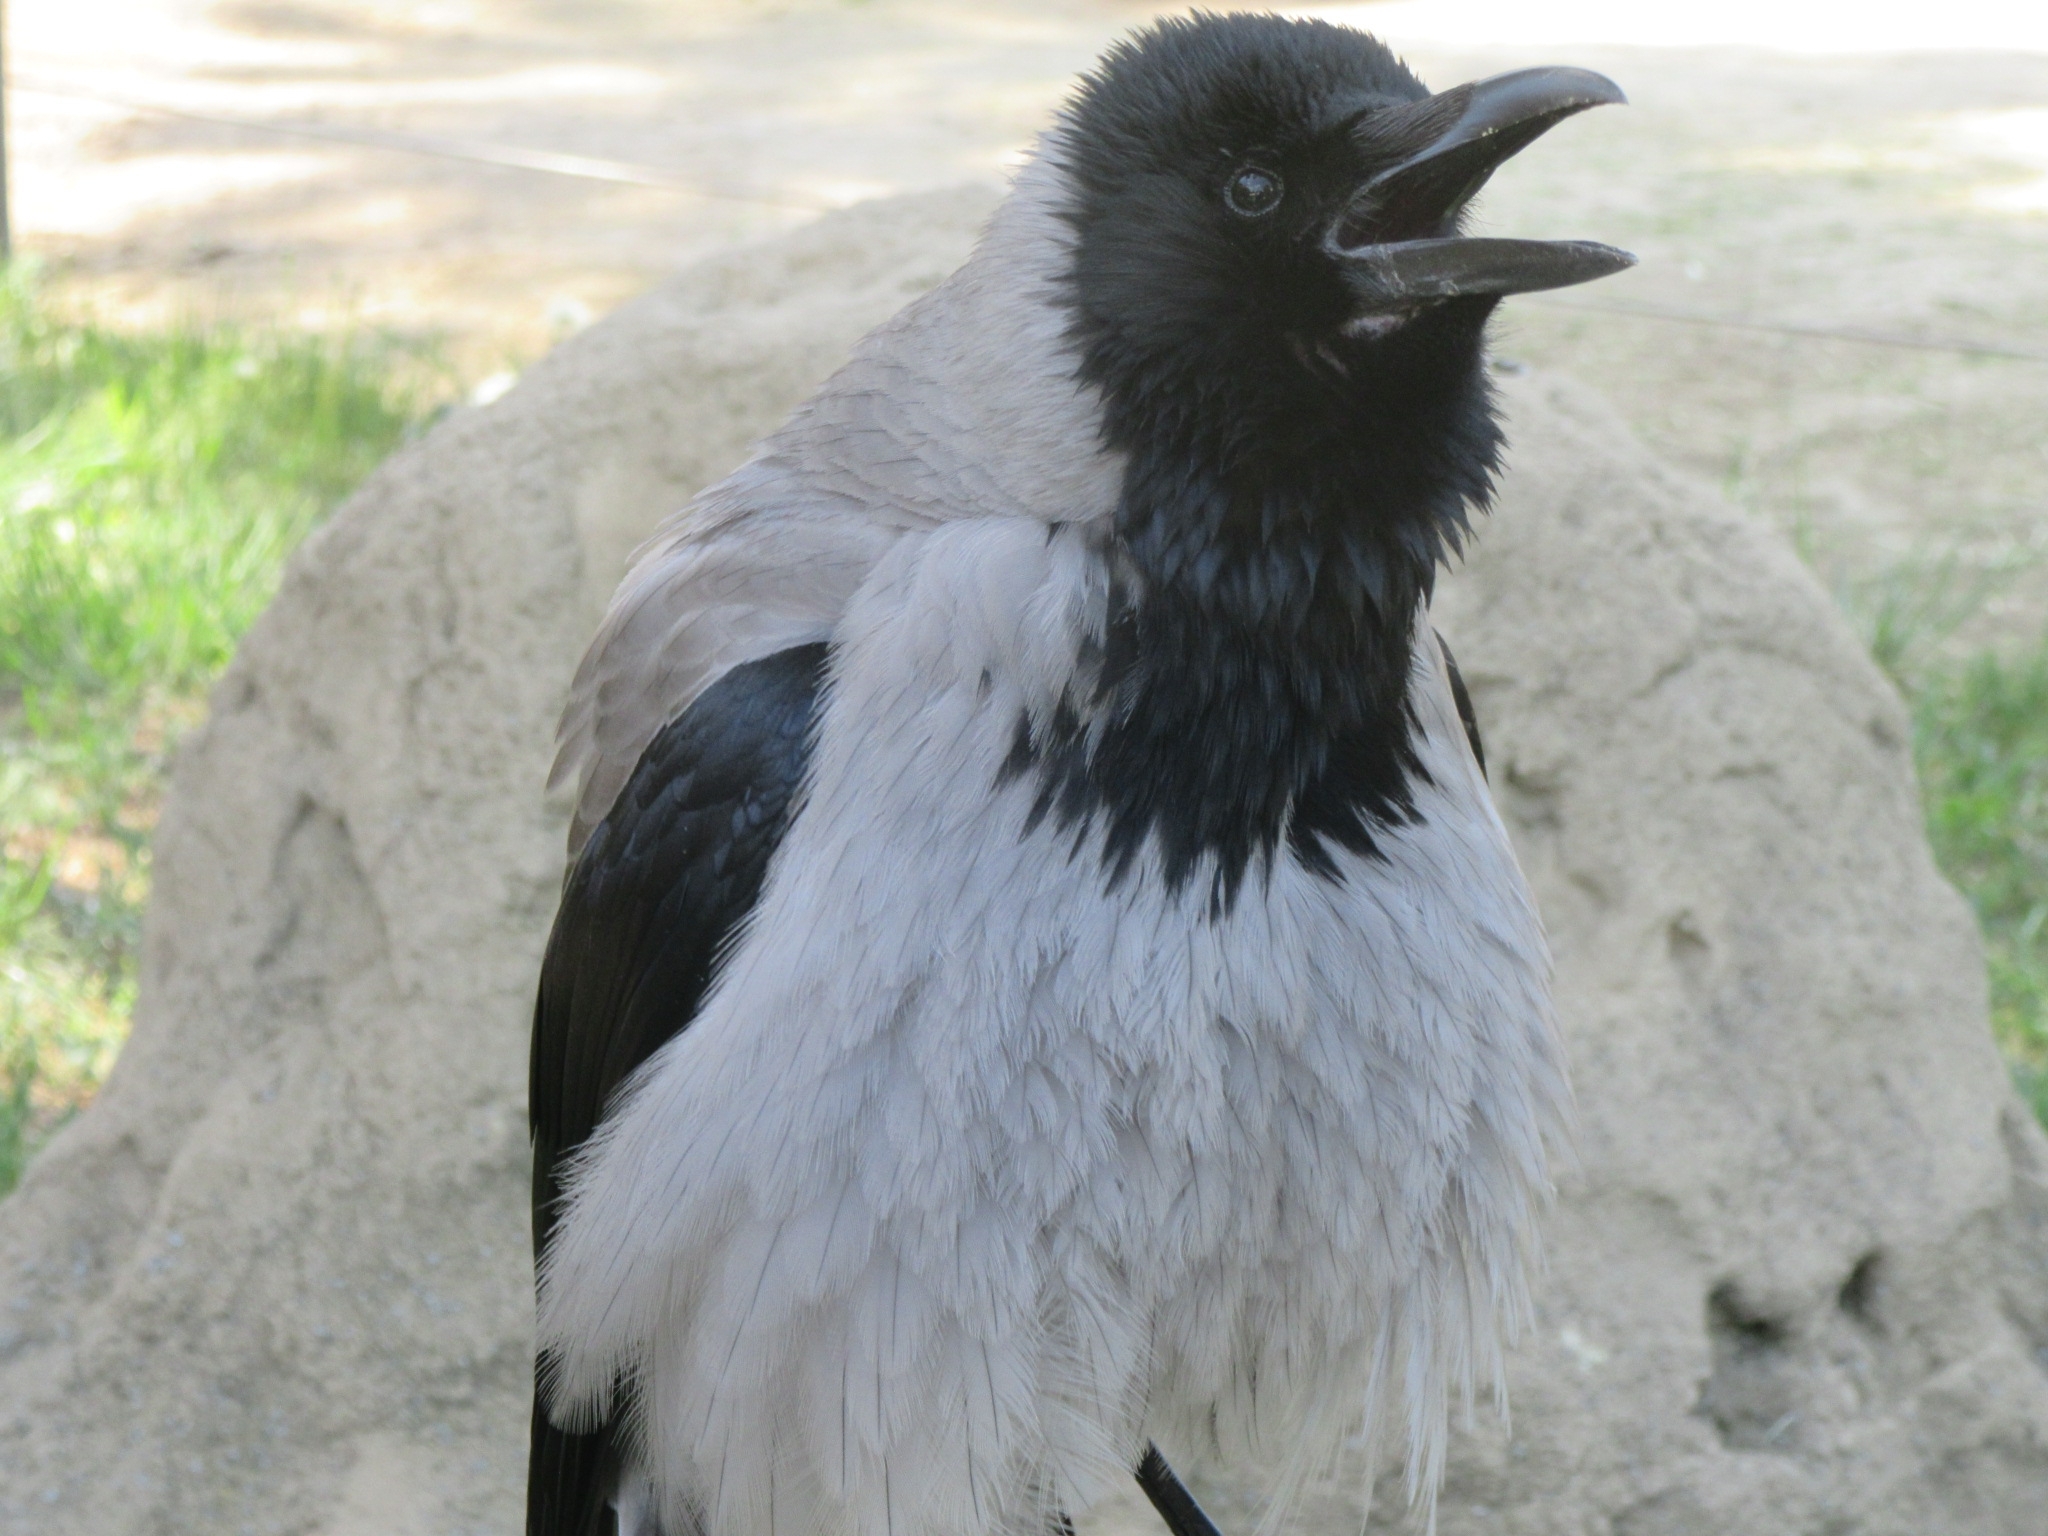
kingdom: Animalia
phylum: Chordata
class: Aves
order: Passeriformes
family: Corvidae
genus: Corvus
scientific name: Corvus cornix
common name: Hooded crow
